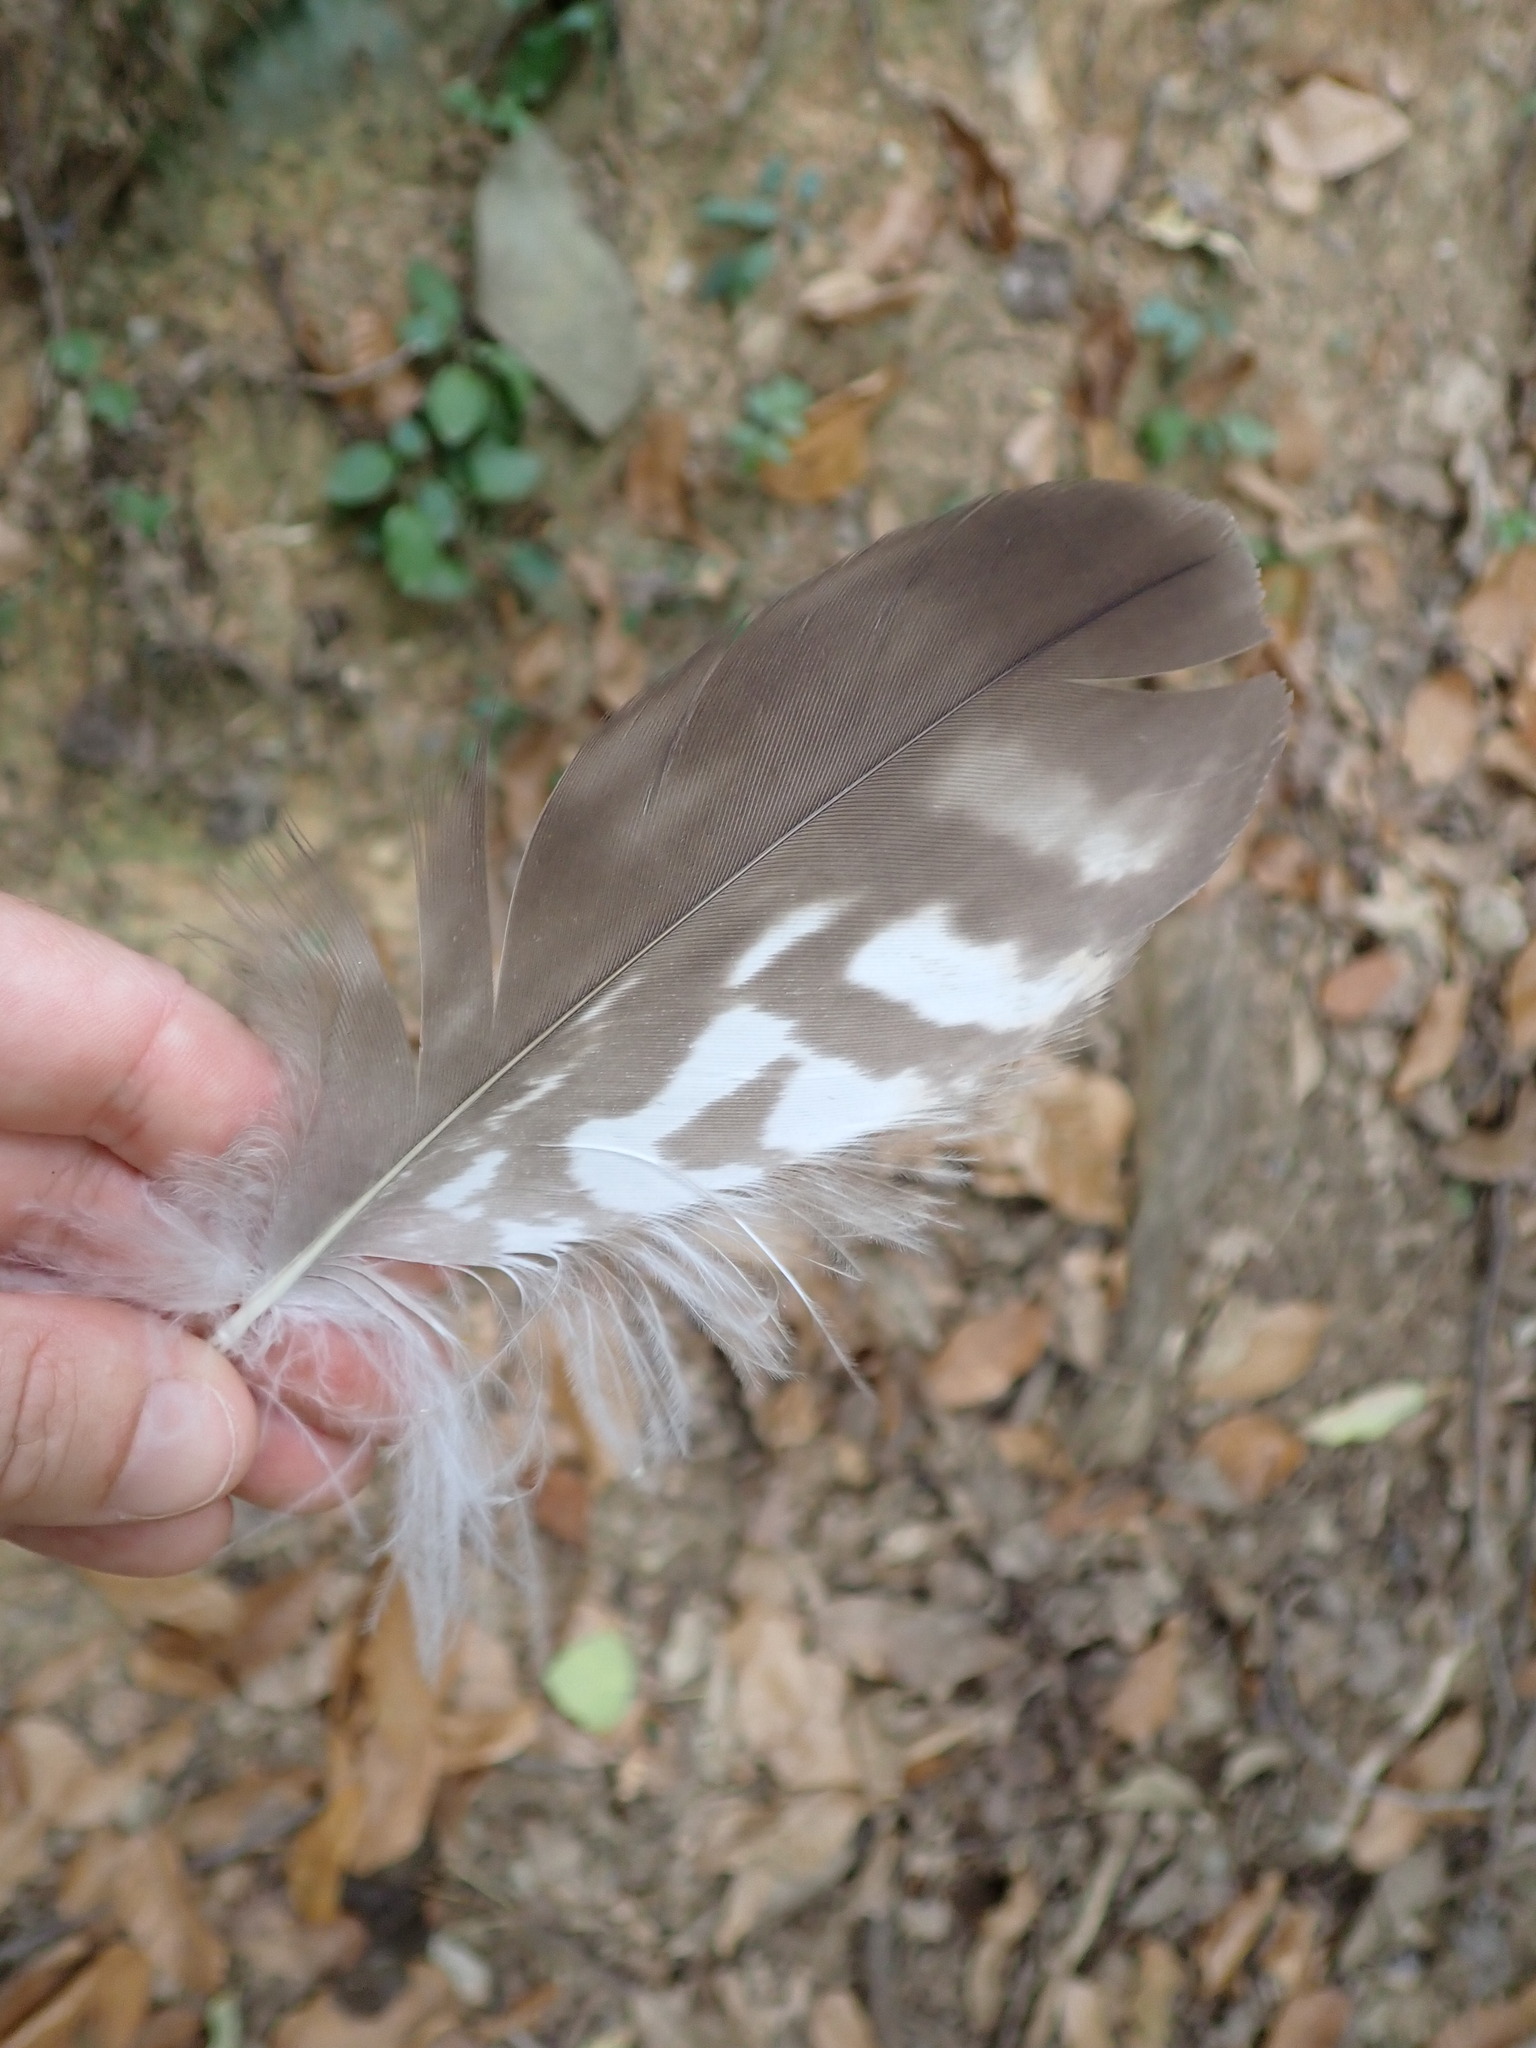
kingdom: Animalia
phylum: Chordata
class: Aves
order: Accipitriformes
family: Accipitridae
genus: Buteo
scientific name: Buteo buteo
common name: Common buzzard
